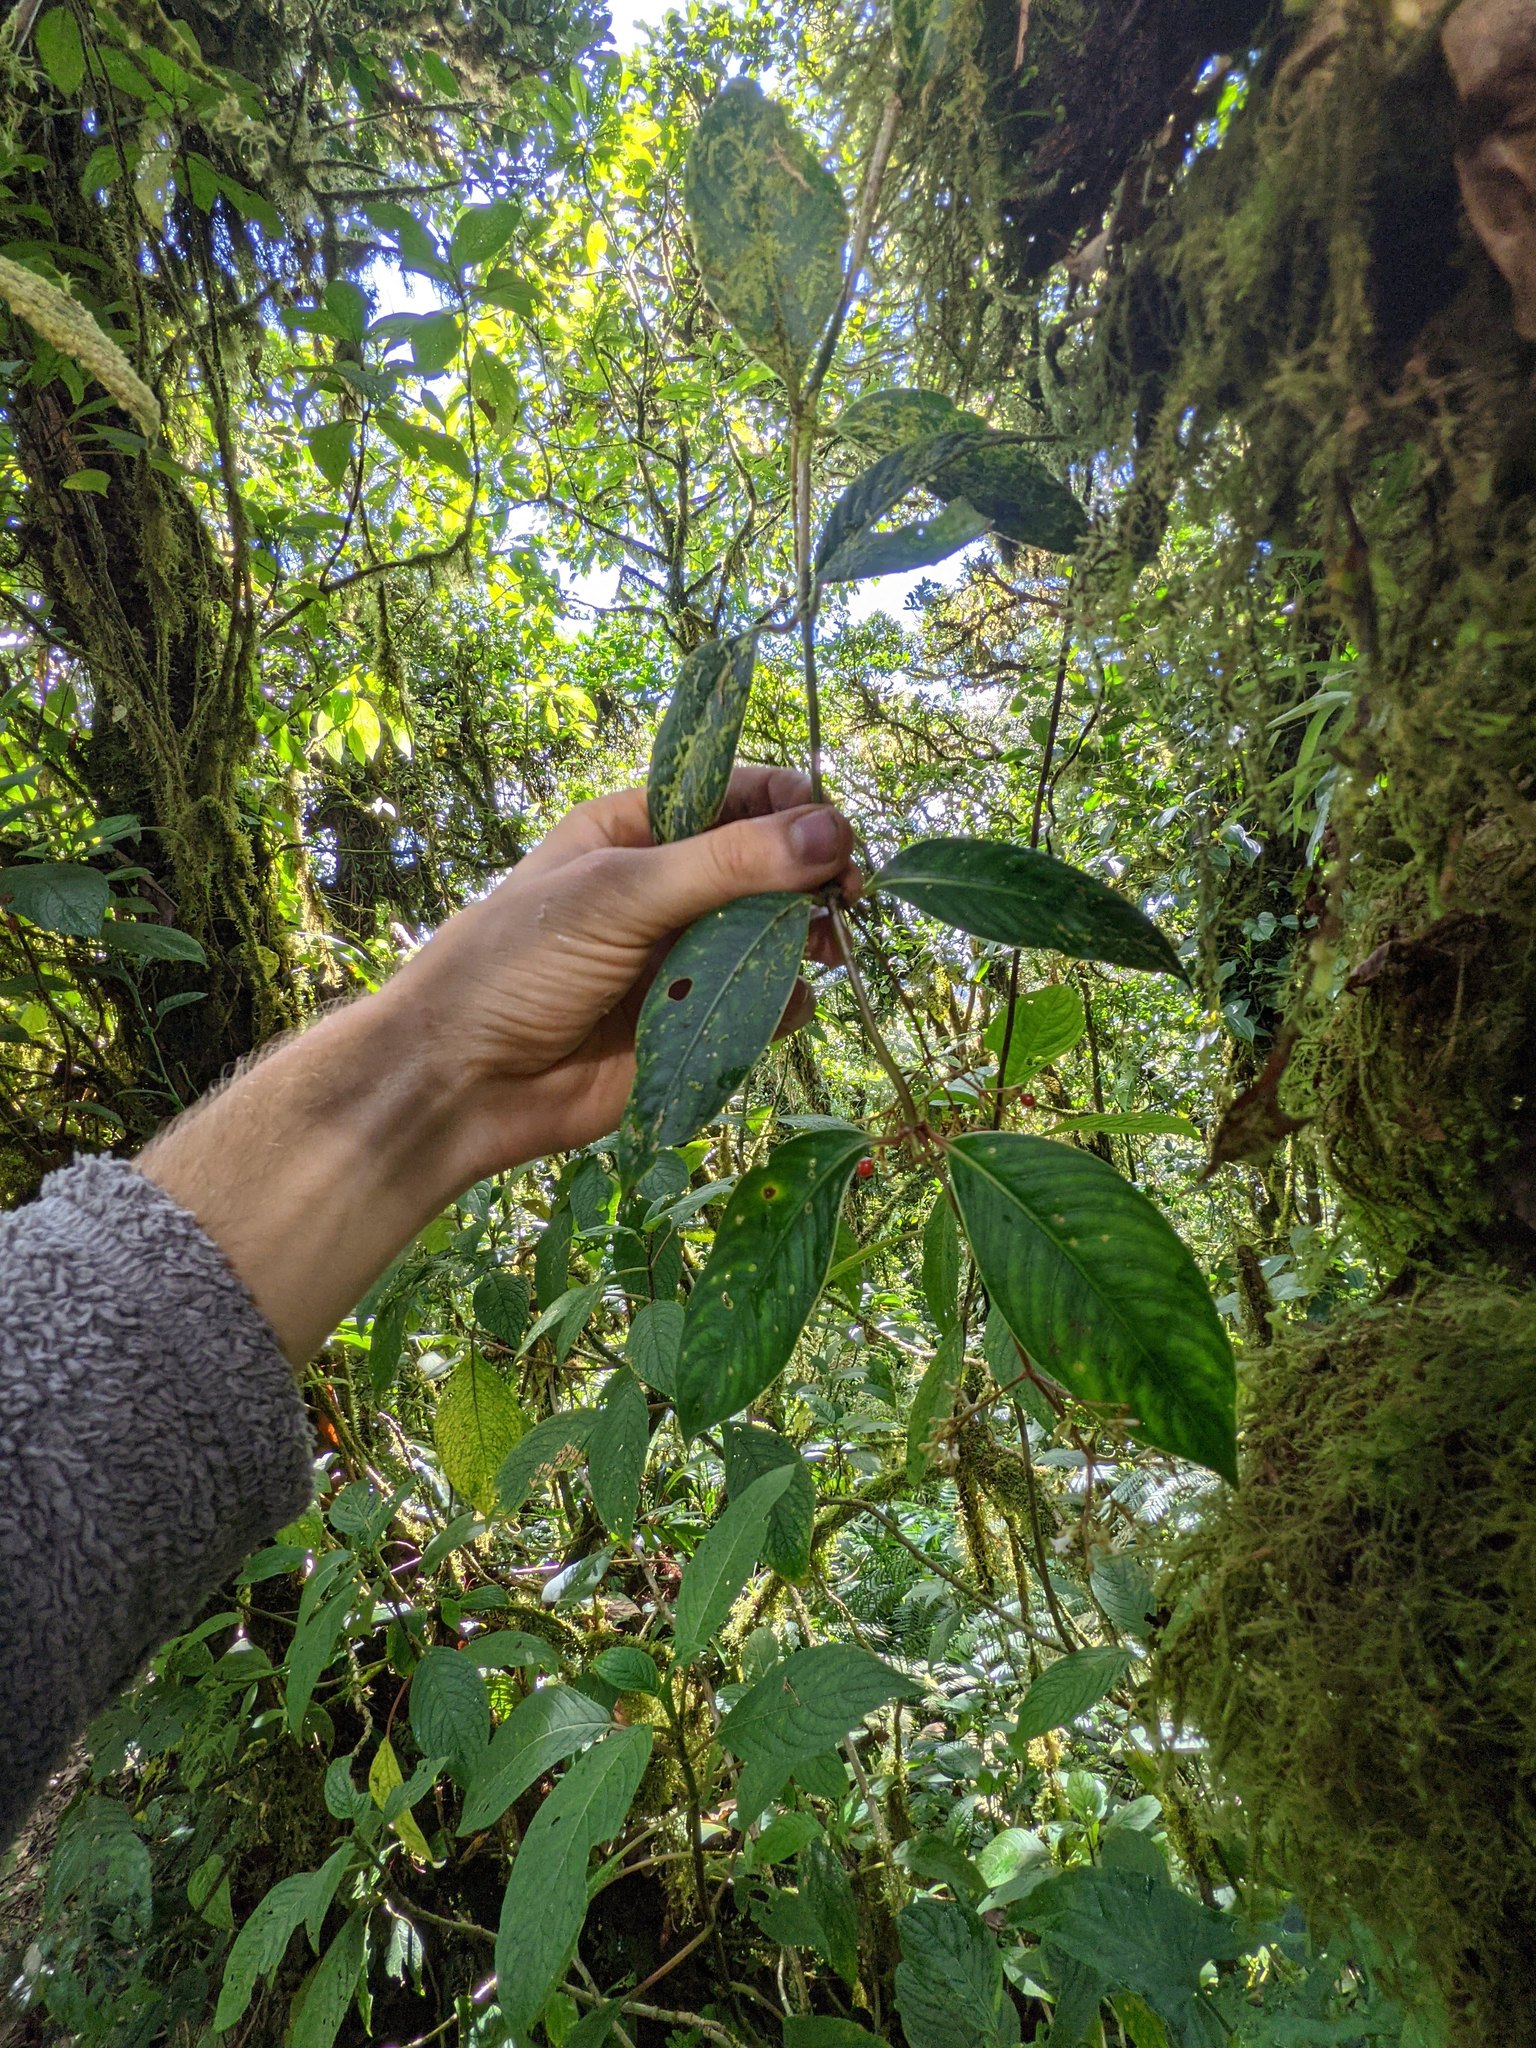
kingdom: Plantae
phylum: Tracheophyta
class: Magnoliopsida
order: Gentianales
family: Rubiaceae
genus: Notopleura
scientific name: Notopleura pithecobia
